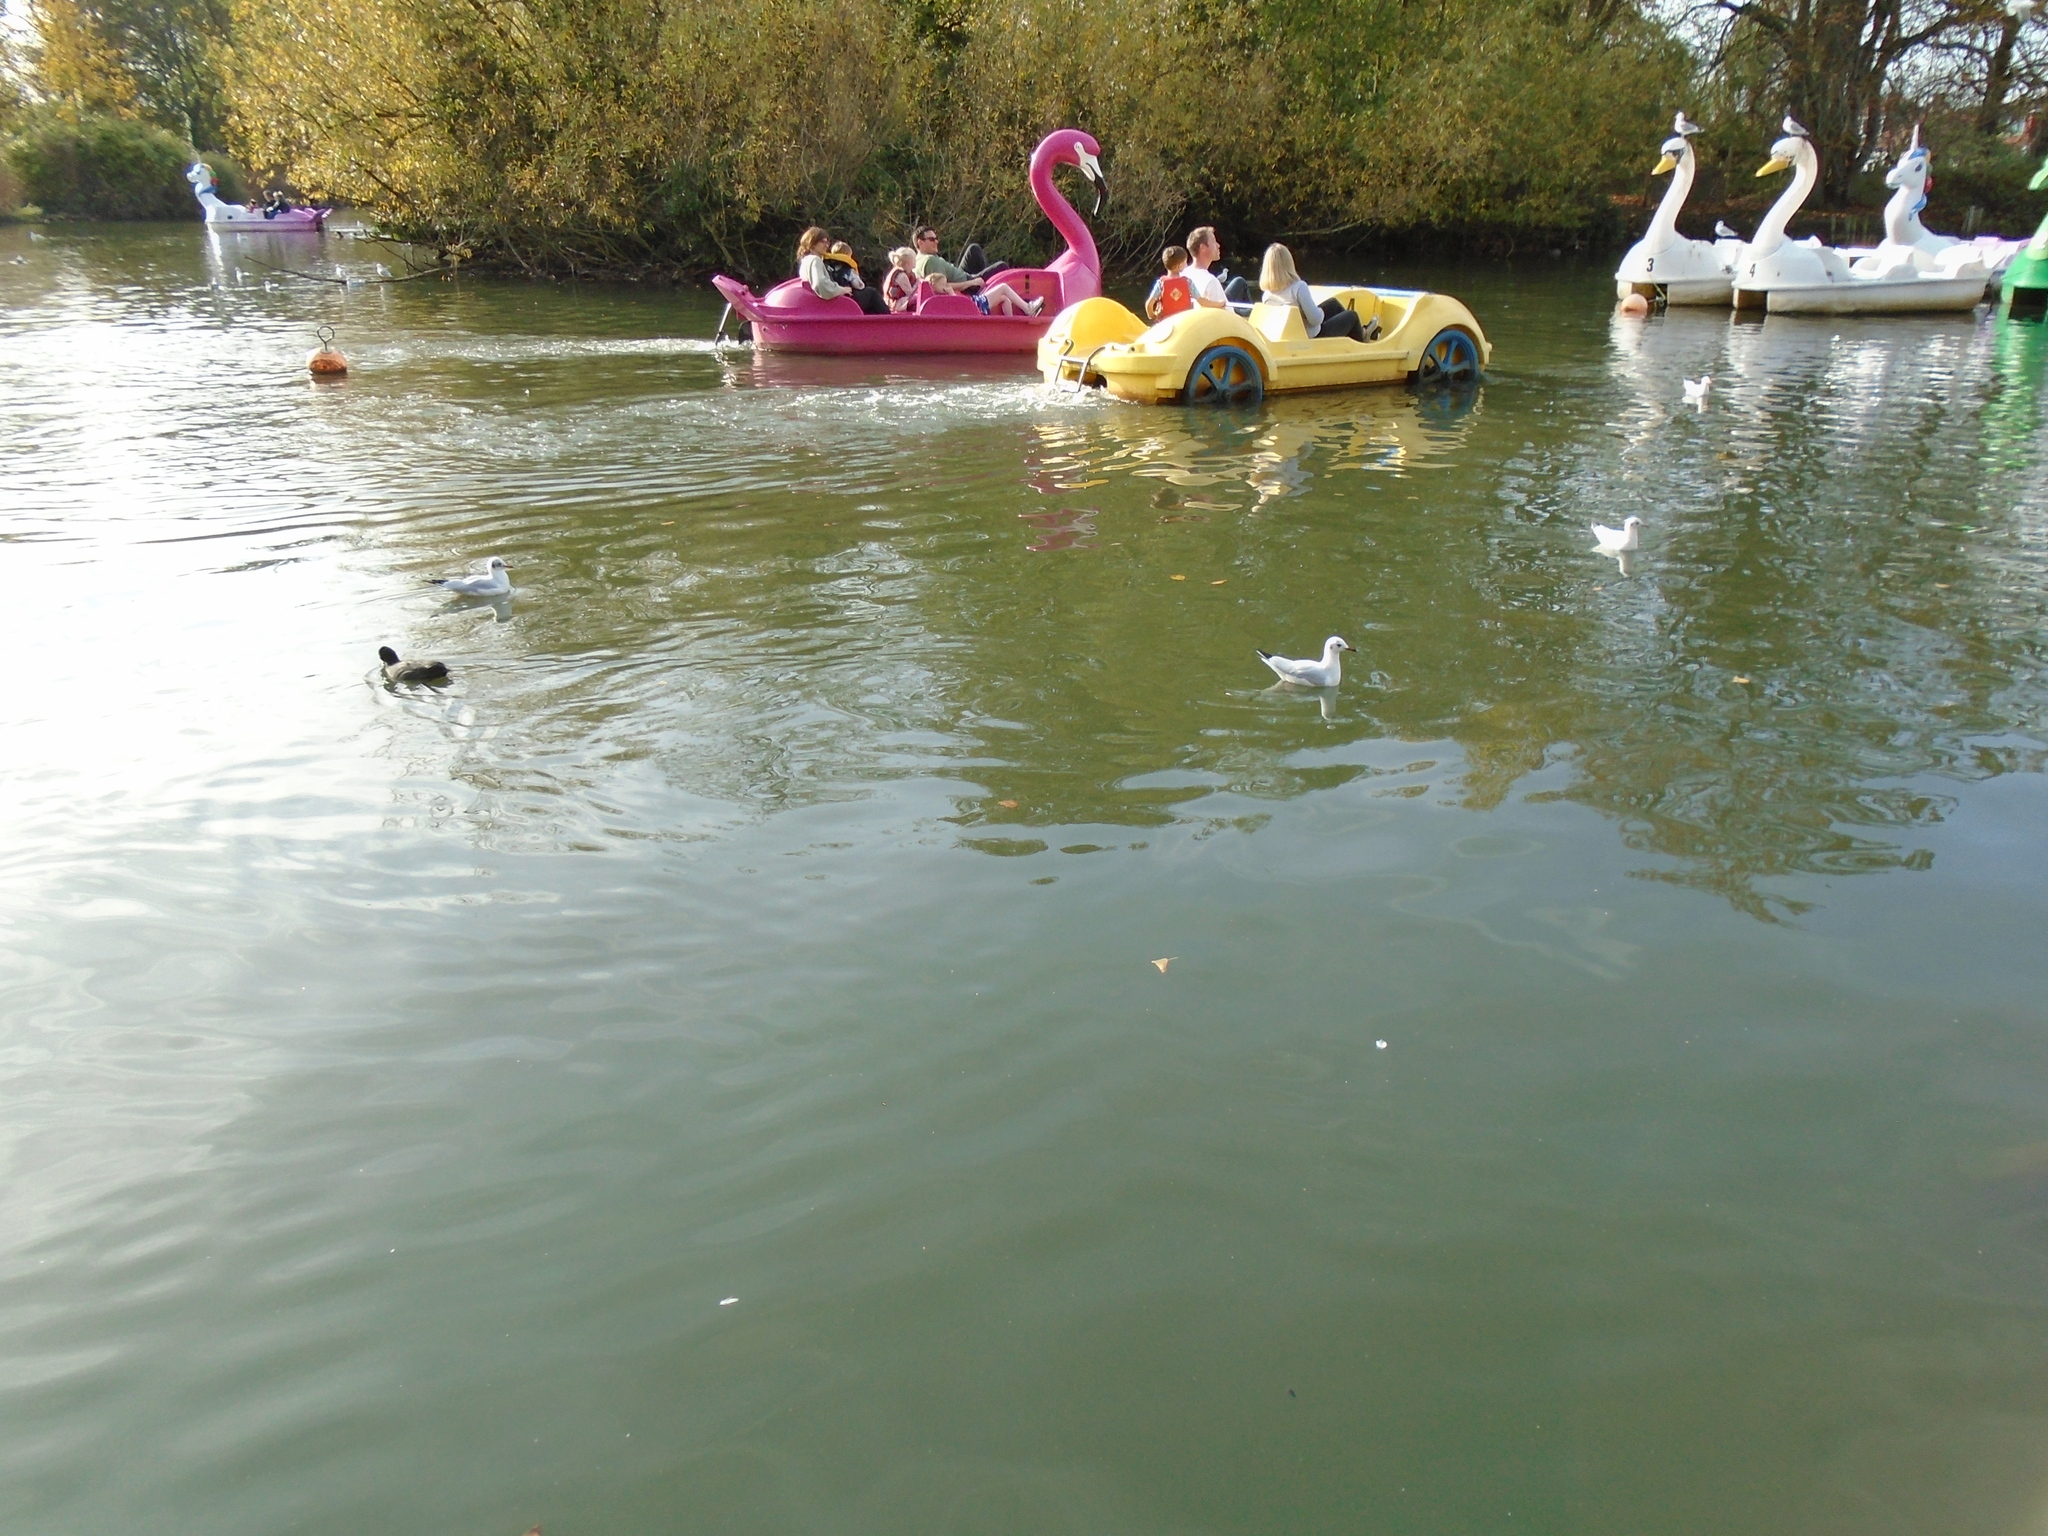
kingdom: Animalia
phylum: Chordata
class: Aves
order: Charadriiformes
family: Laridae
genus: Chroicocephalus
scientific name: Chroicocephalus ridibundus
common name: Black-headed gull
